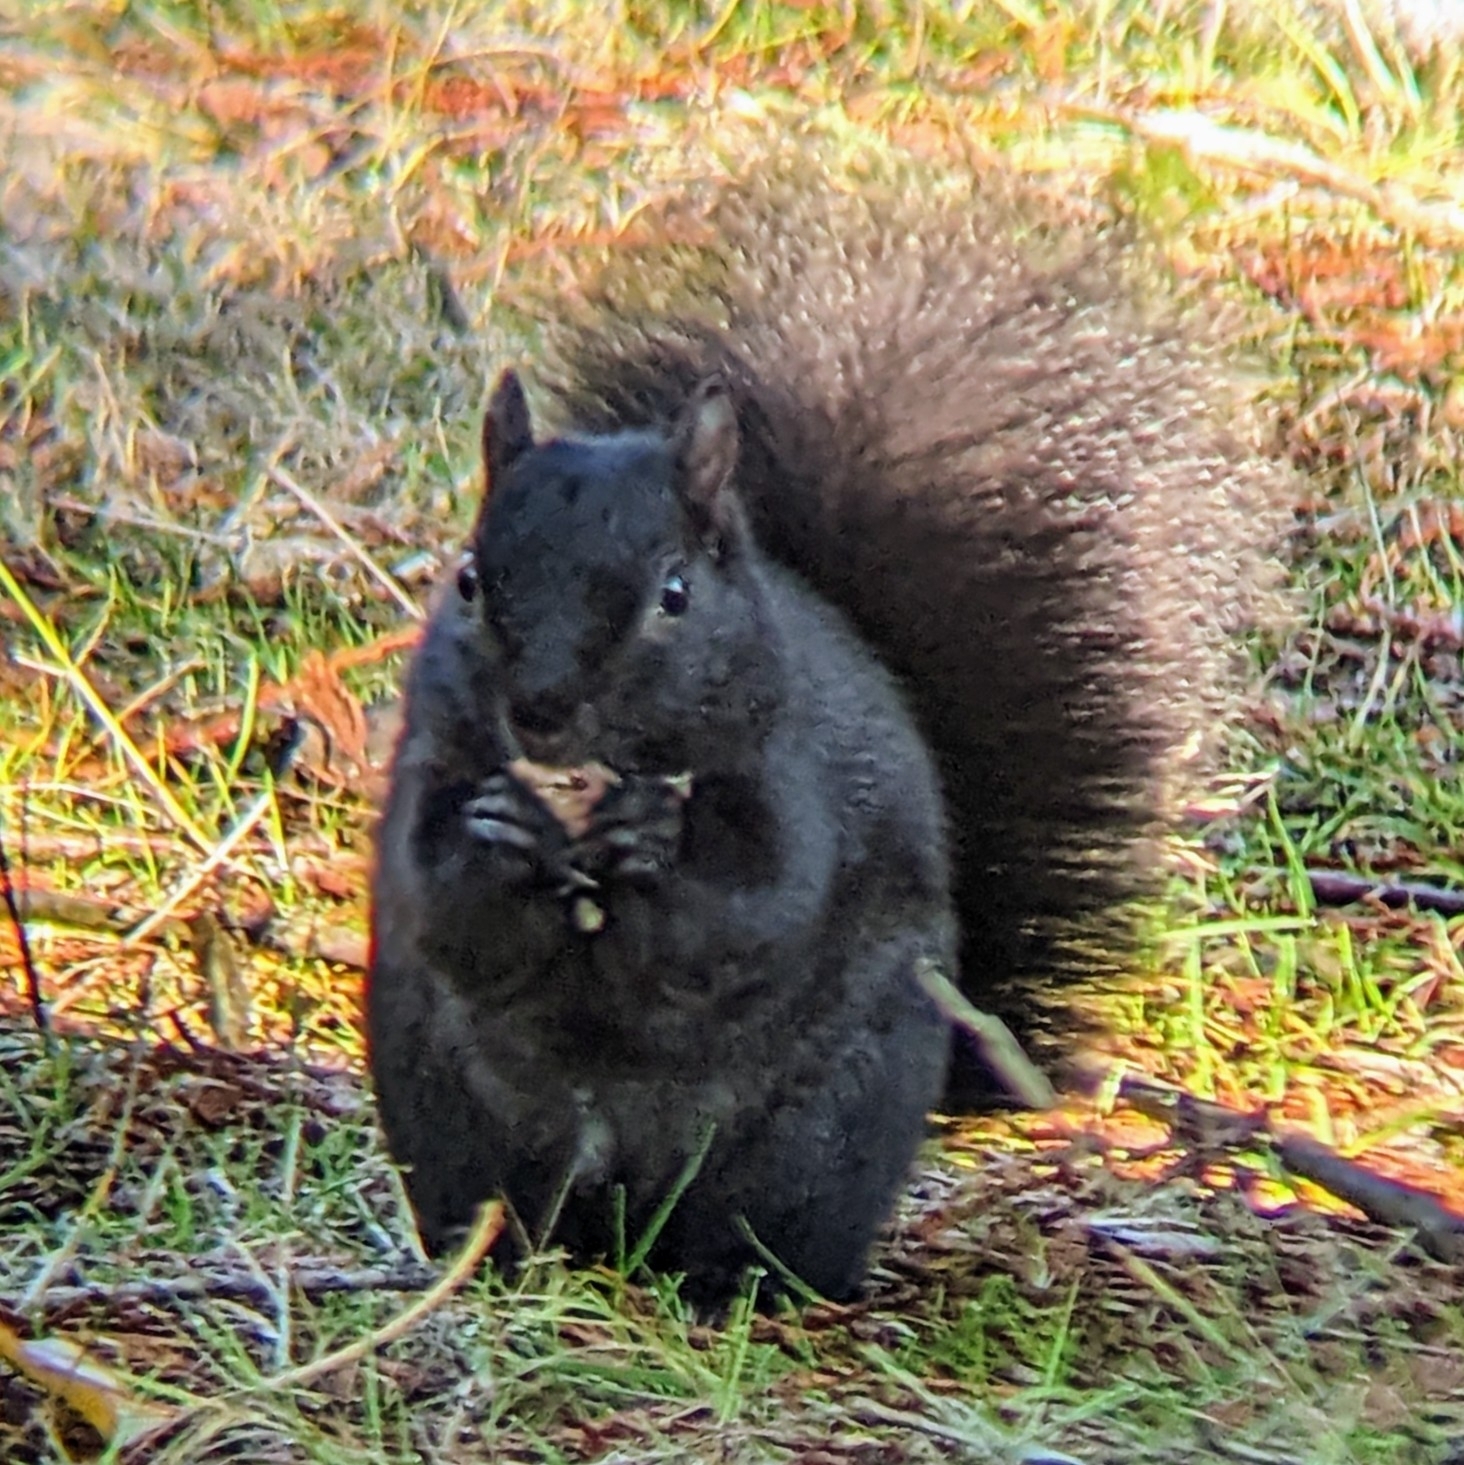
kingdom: Animalia
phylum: Chordata
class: Mammalia
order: Rodentia
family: Sciuridae
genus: Sciurus
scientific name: Sciurus carolinensis
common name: Eastern gray squirrel
